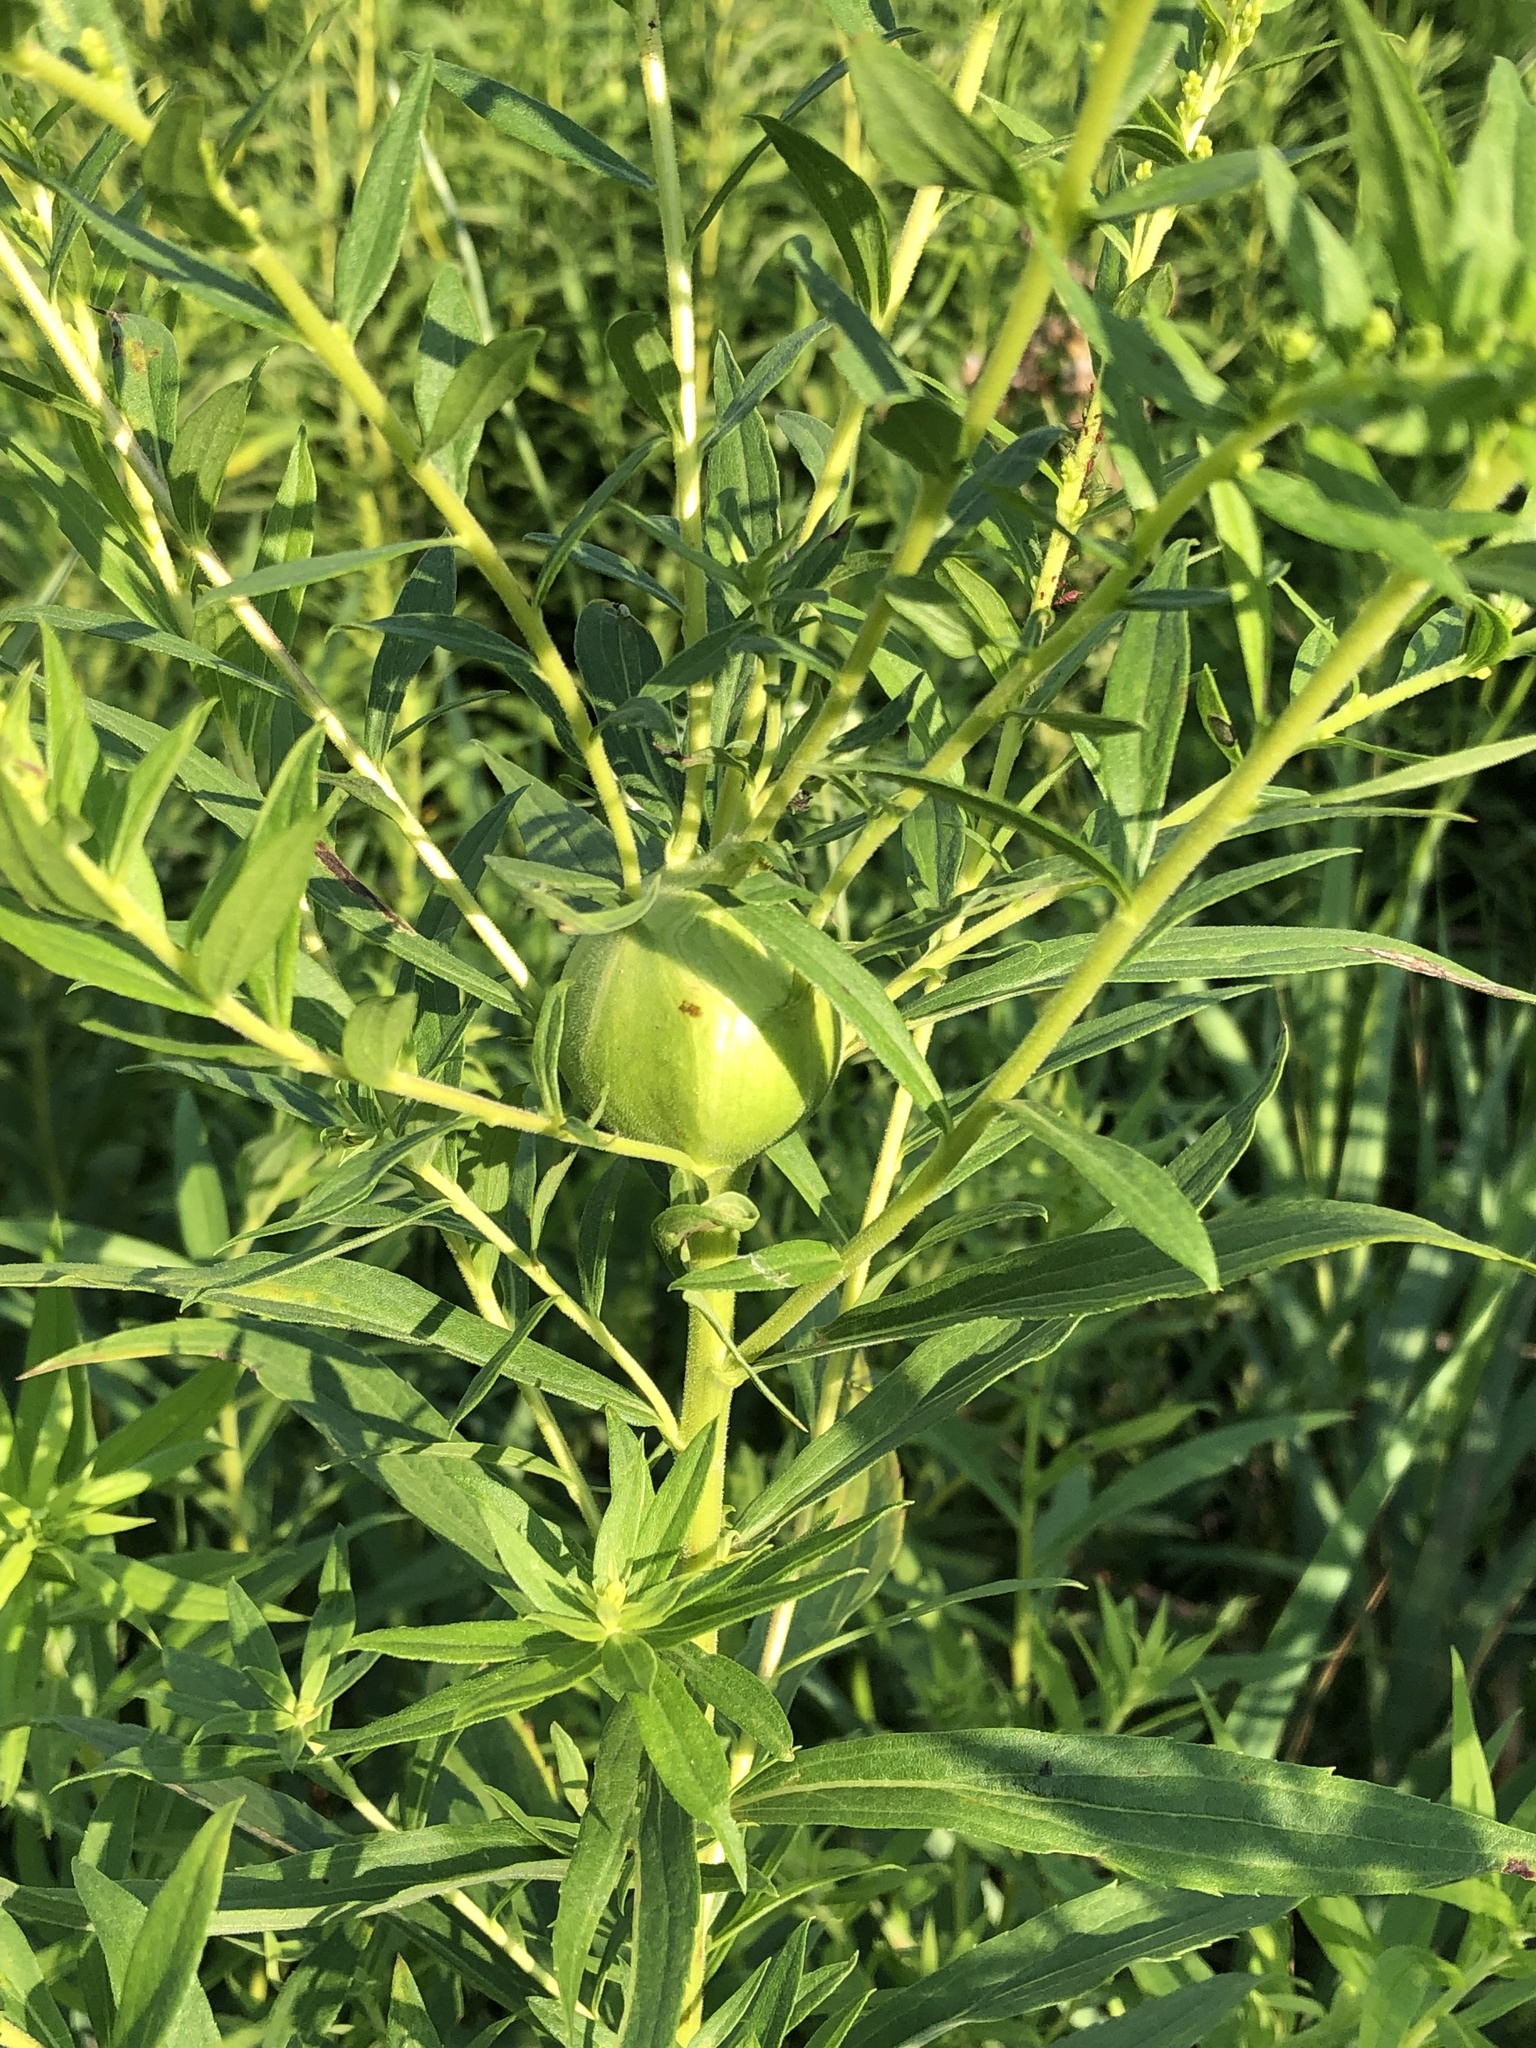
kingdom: Animalia
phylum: Arthropoda
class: Insecta
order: Diptera
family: Tephritidae
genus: Eurosta
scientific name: Eurosta solidaginis
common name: Goldenrod gall fly
